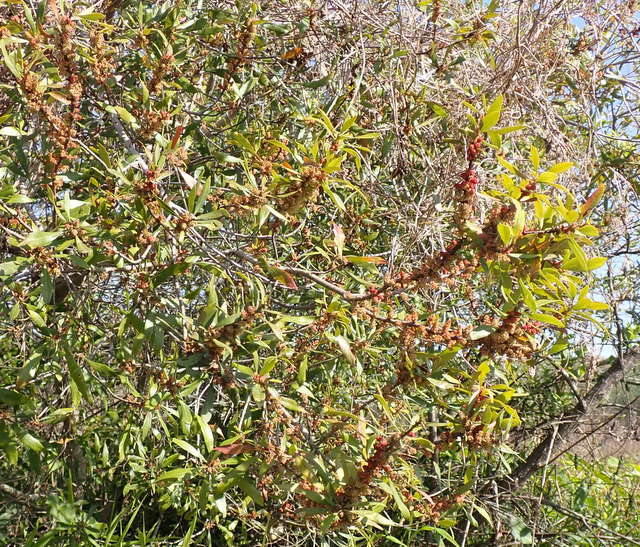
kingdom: Plantae
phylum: Tracheophyta
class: Magnoliopsida
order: Fagales
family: Myricaceae
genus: Morella
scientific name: Morella cerifera
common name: Wax myrtle
